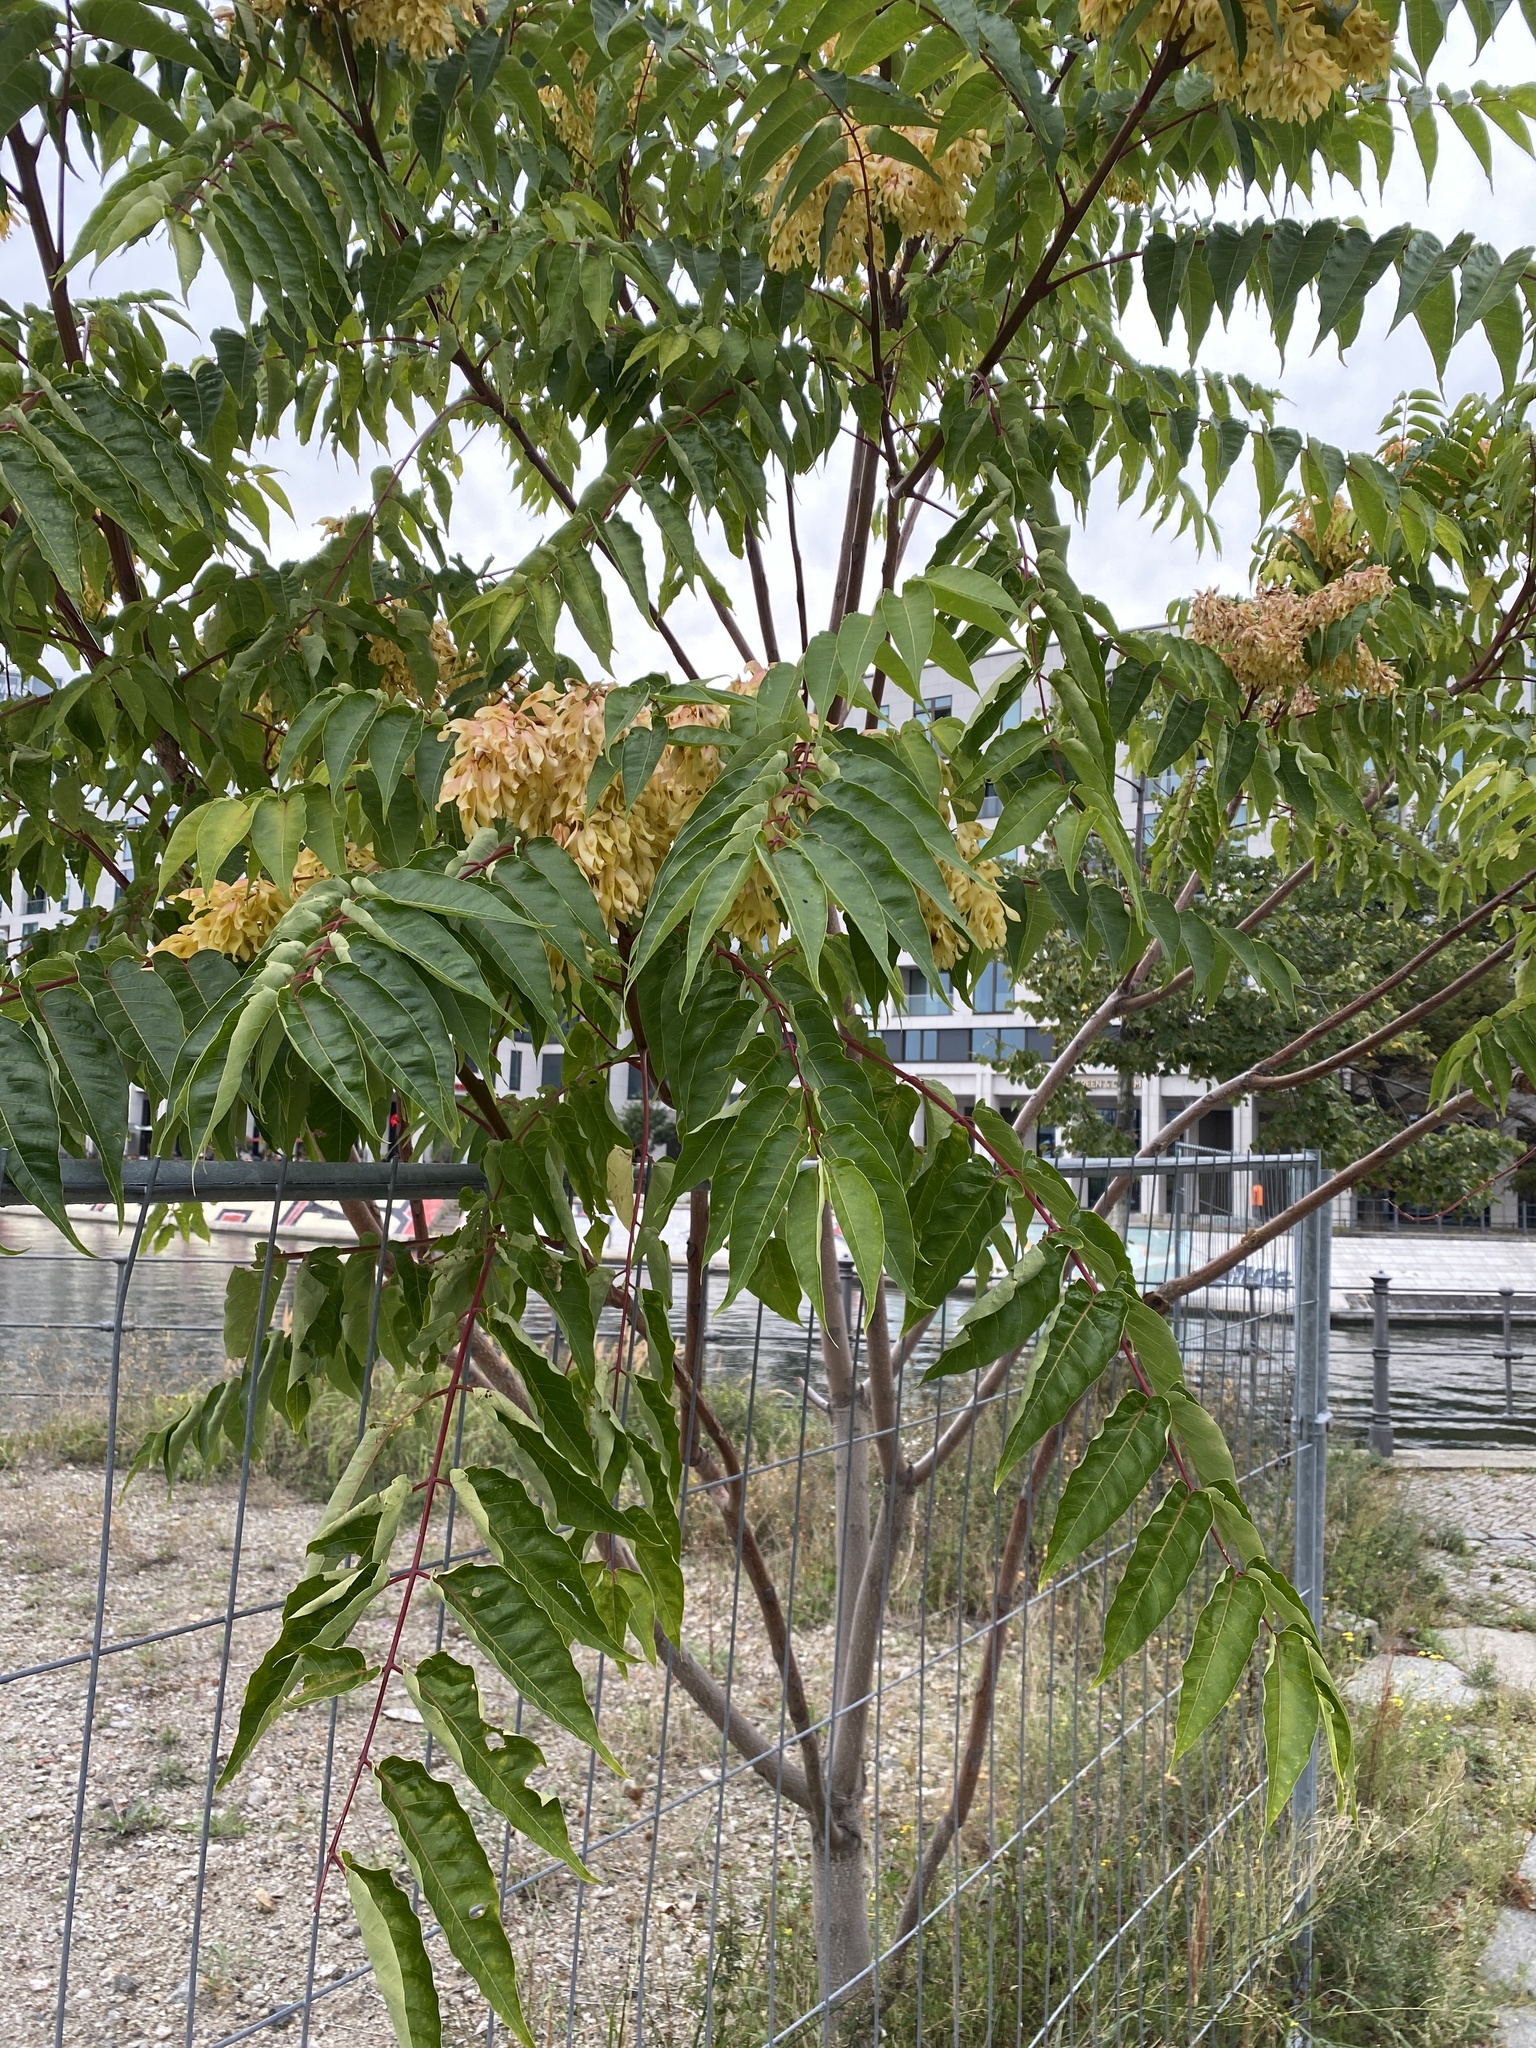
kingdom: Plantae
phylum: Tracheophyta
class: Magnoliopsida
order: Sapindales
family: Simaroubaceae
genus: Ailanthus
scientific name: Ailanthus altissima
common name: Tree-of-heaven
